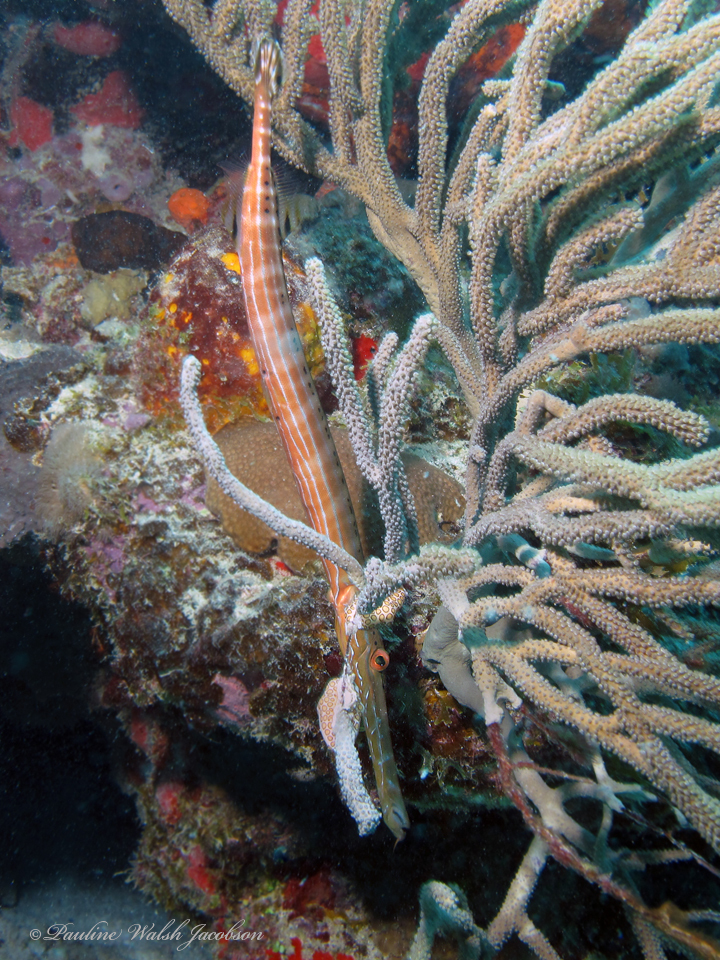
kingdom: Animalia
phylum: Chordata
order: Syngnathiformes
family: Aulostomidae
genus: Aulostomus
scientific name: Aulostomus maculatus
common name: West atlantic trumpetfish
